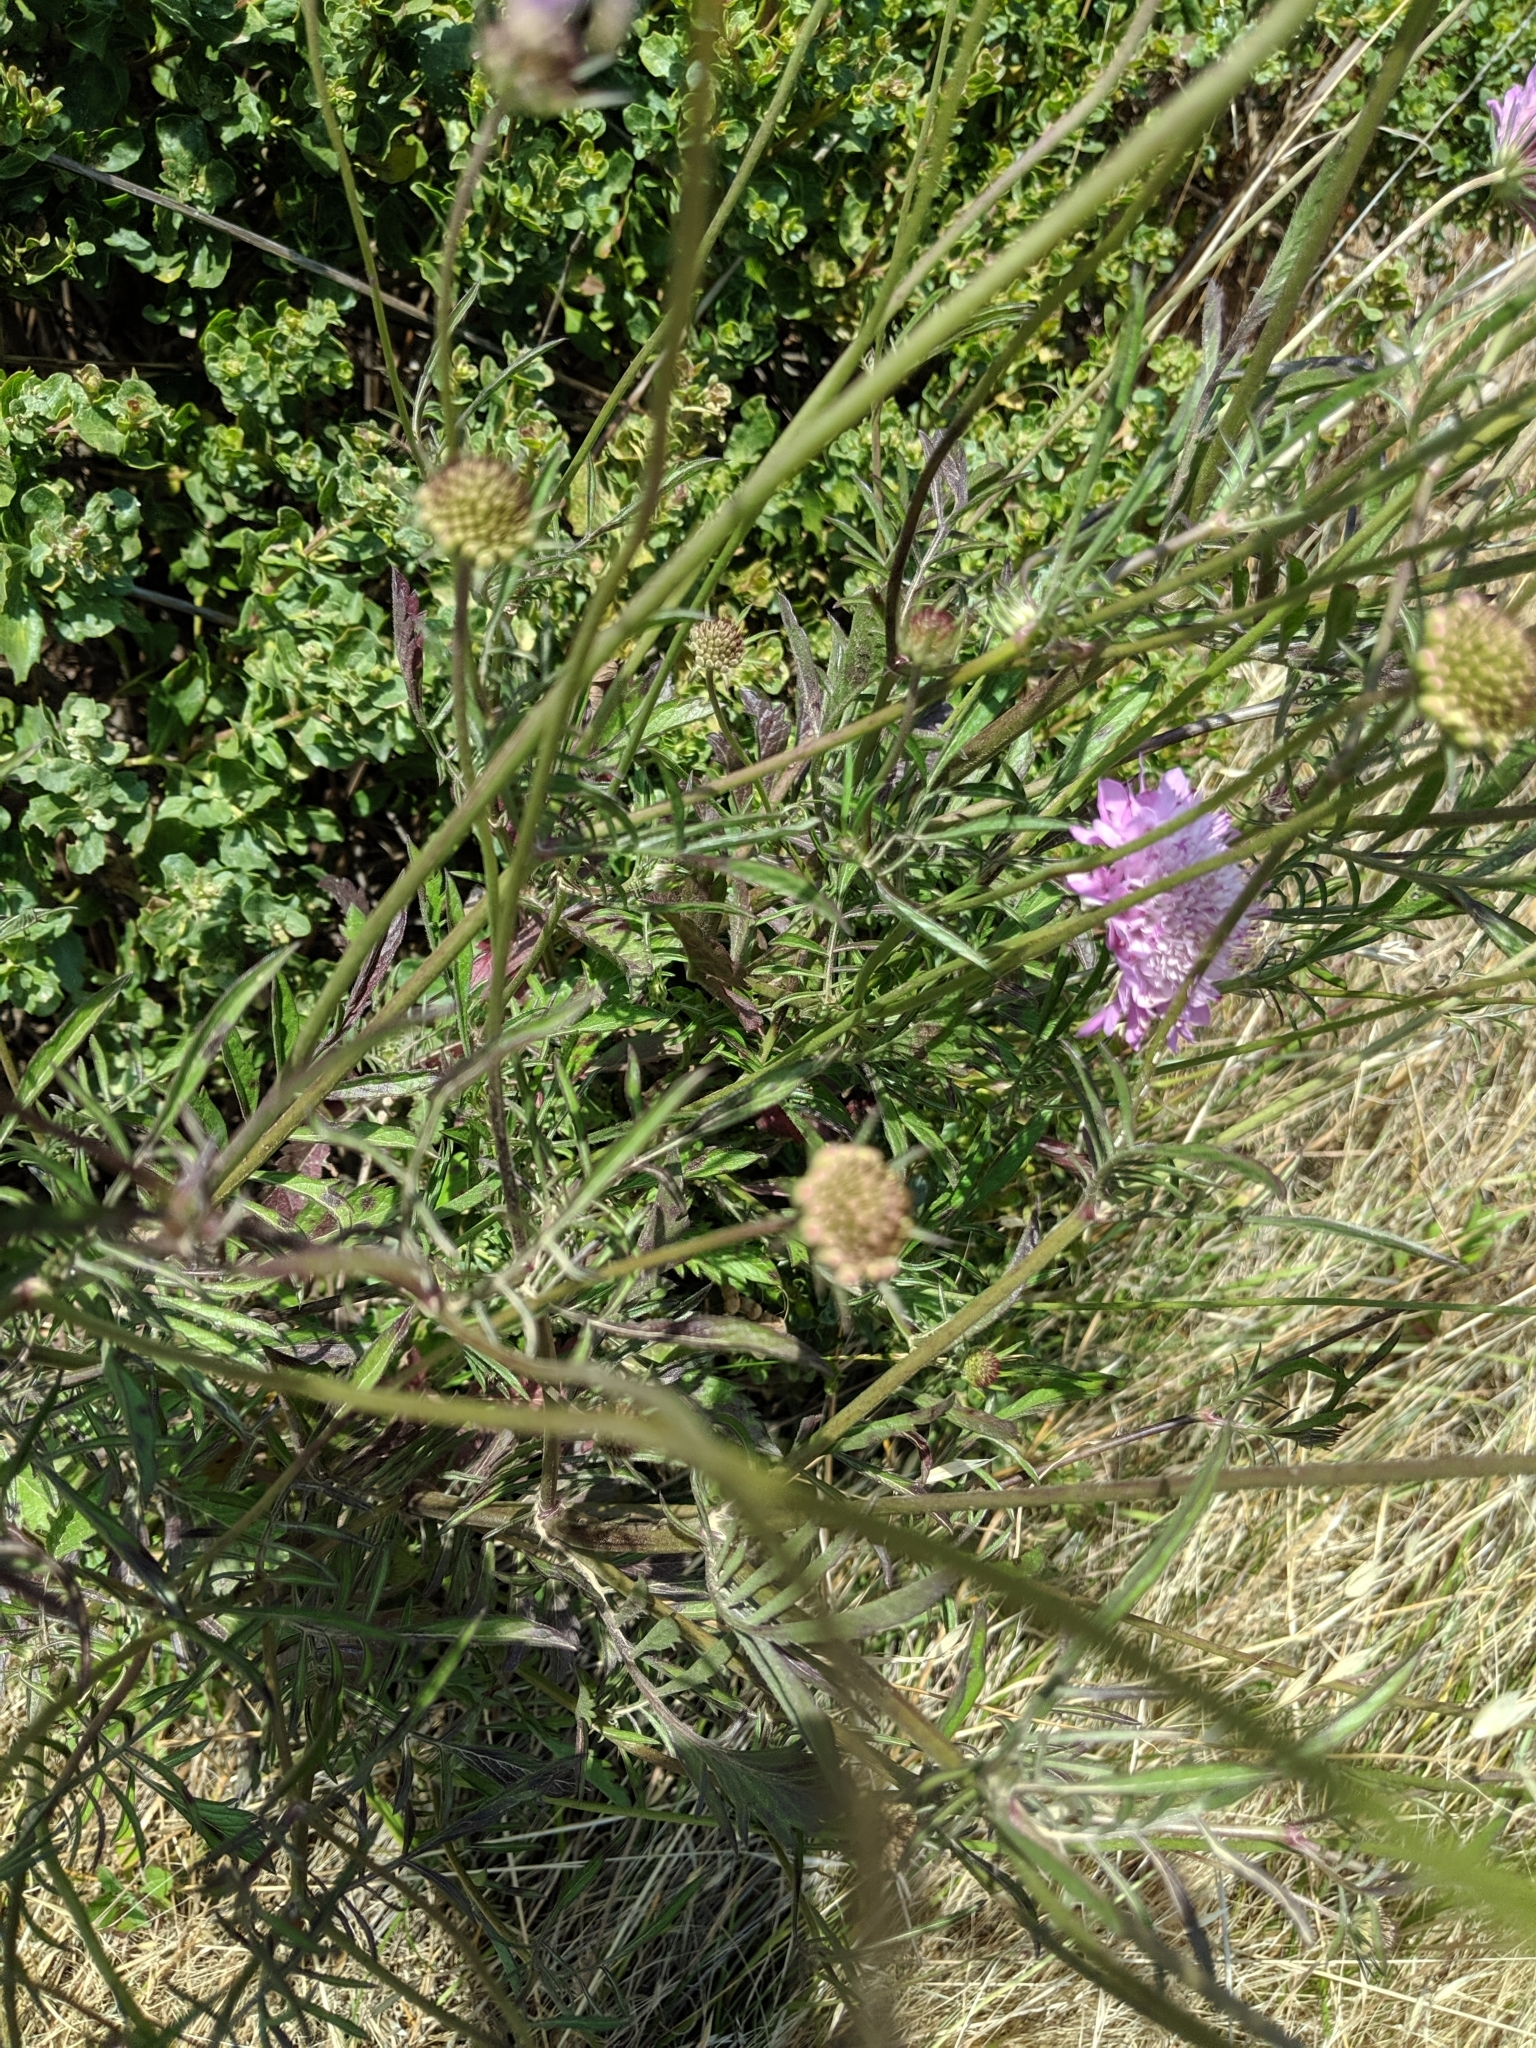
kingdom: Plantae
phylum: Tracheophyta
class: Magnoliopsida
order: Dipsacales
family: Caprifoliaceae
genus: Sixalix
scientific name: Sixalix atropurpurea
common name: Sweet scabious
